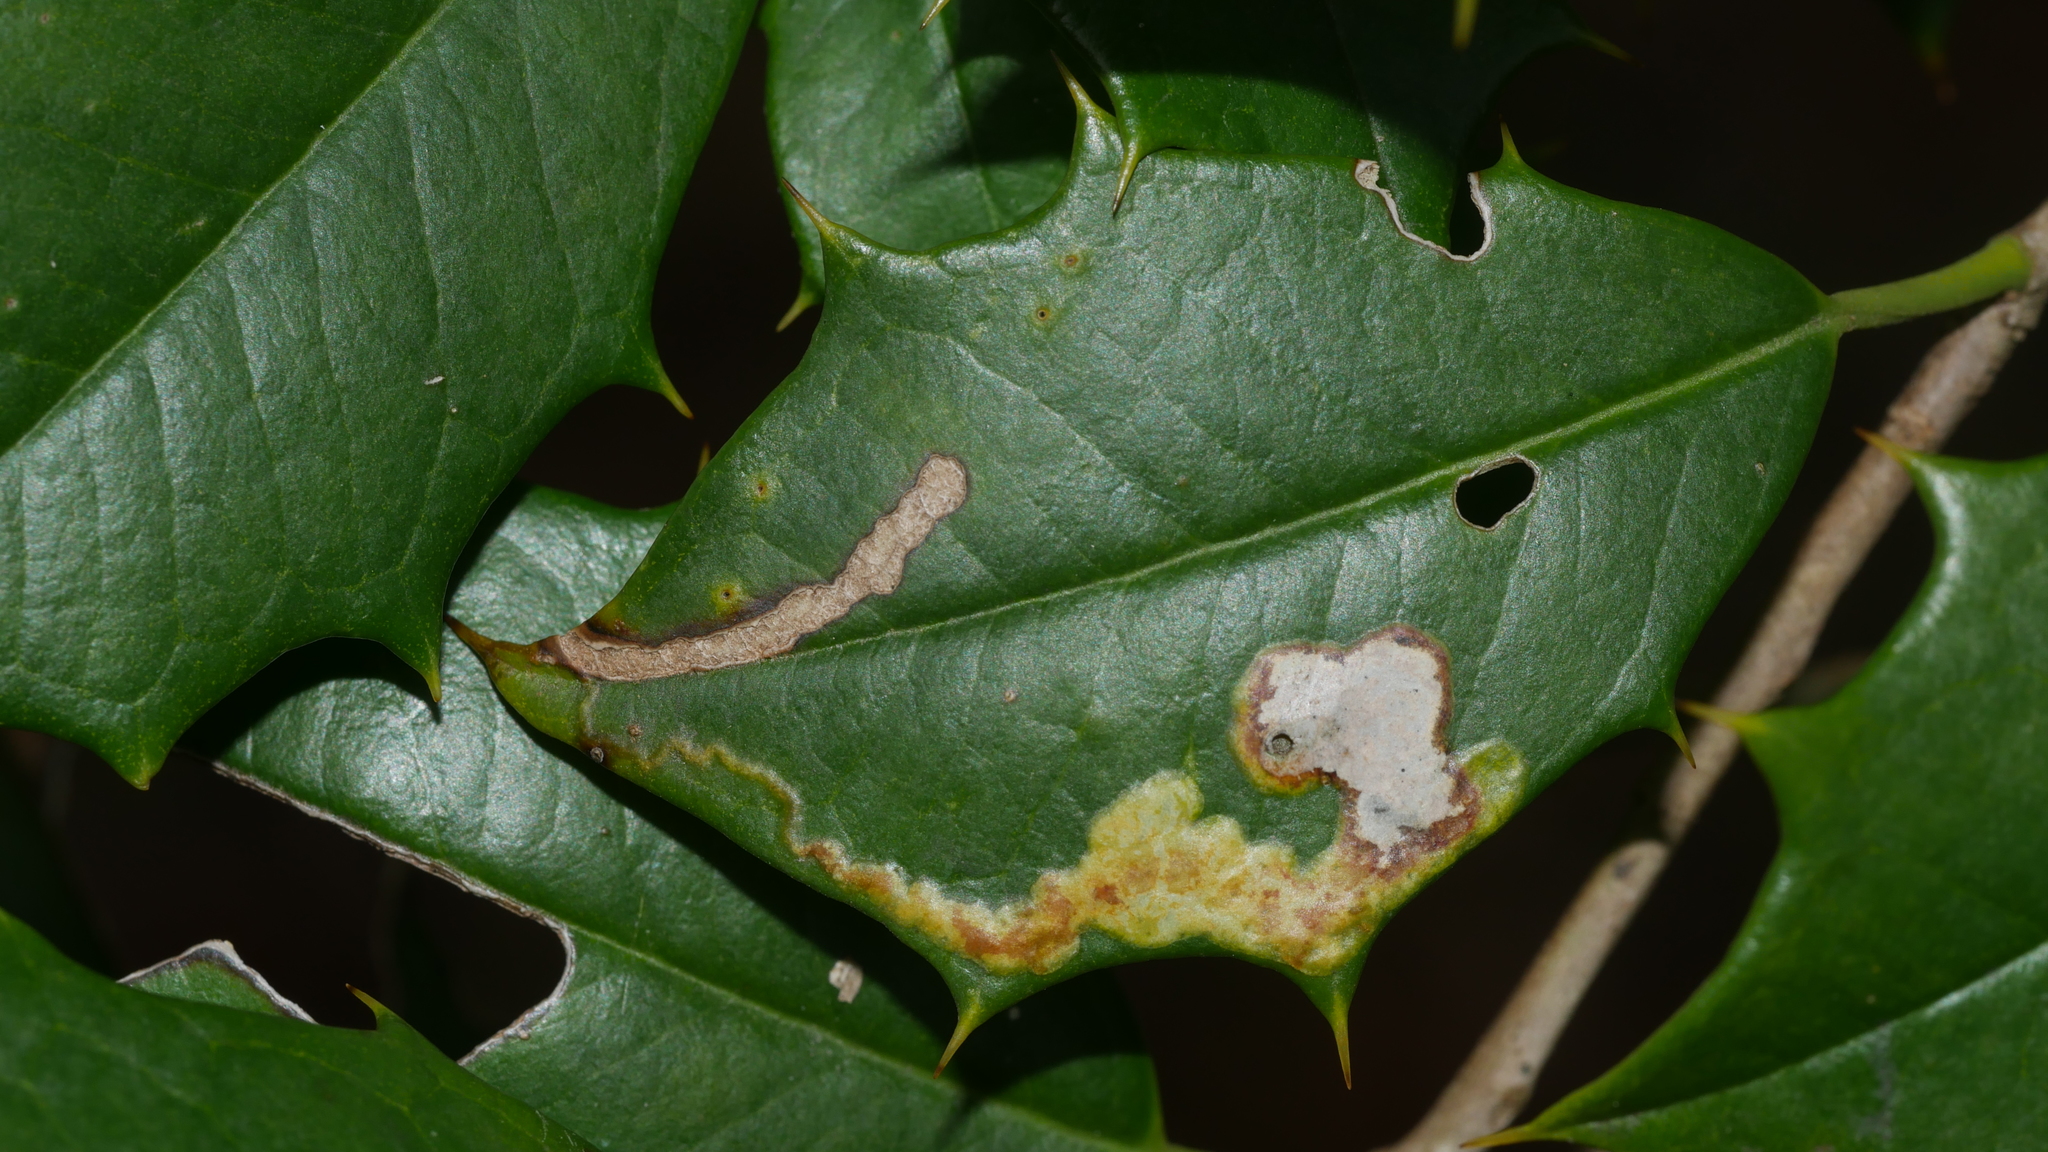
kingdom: Animalia
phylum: Arthropoda
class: Insecta
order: Diptera
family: Agromyzidae
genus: Phytomyza
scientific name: Phytomyza ilicicola
